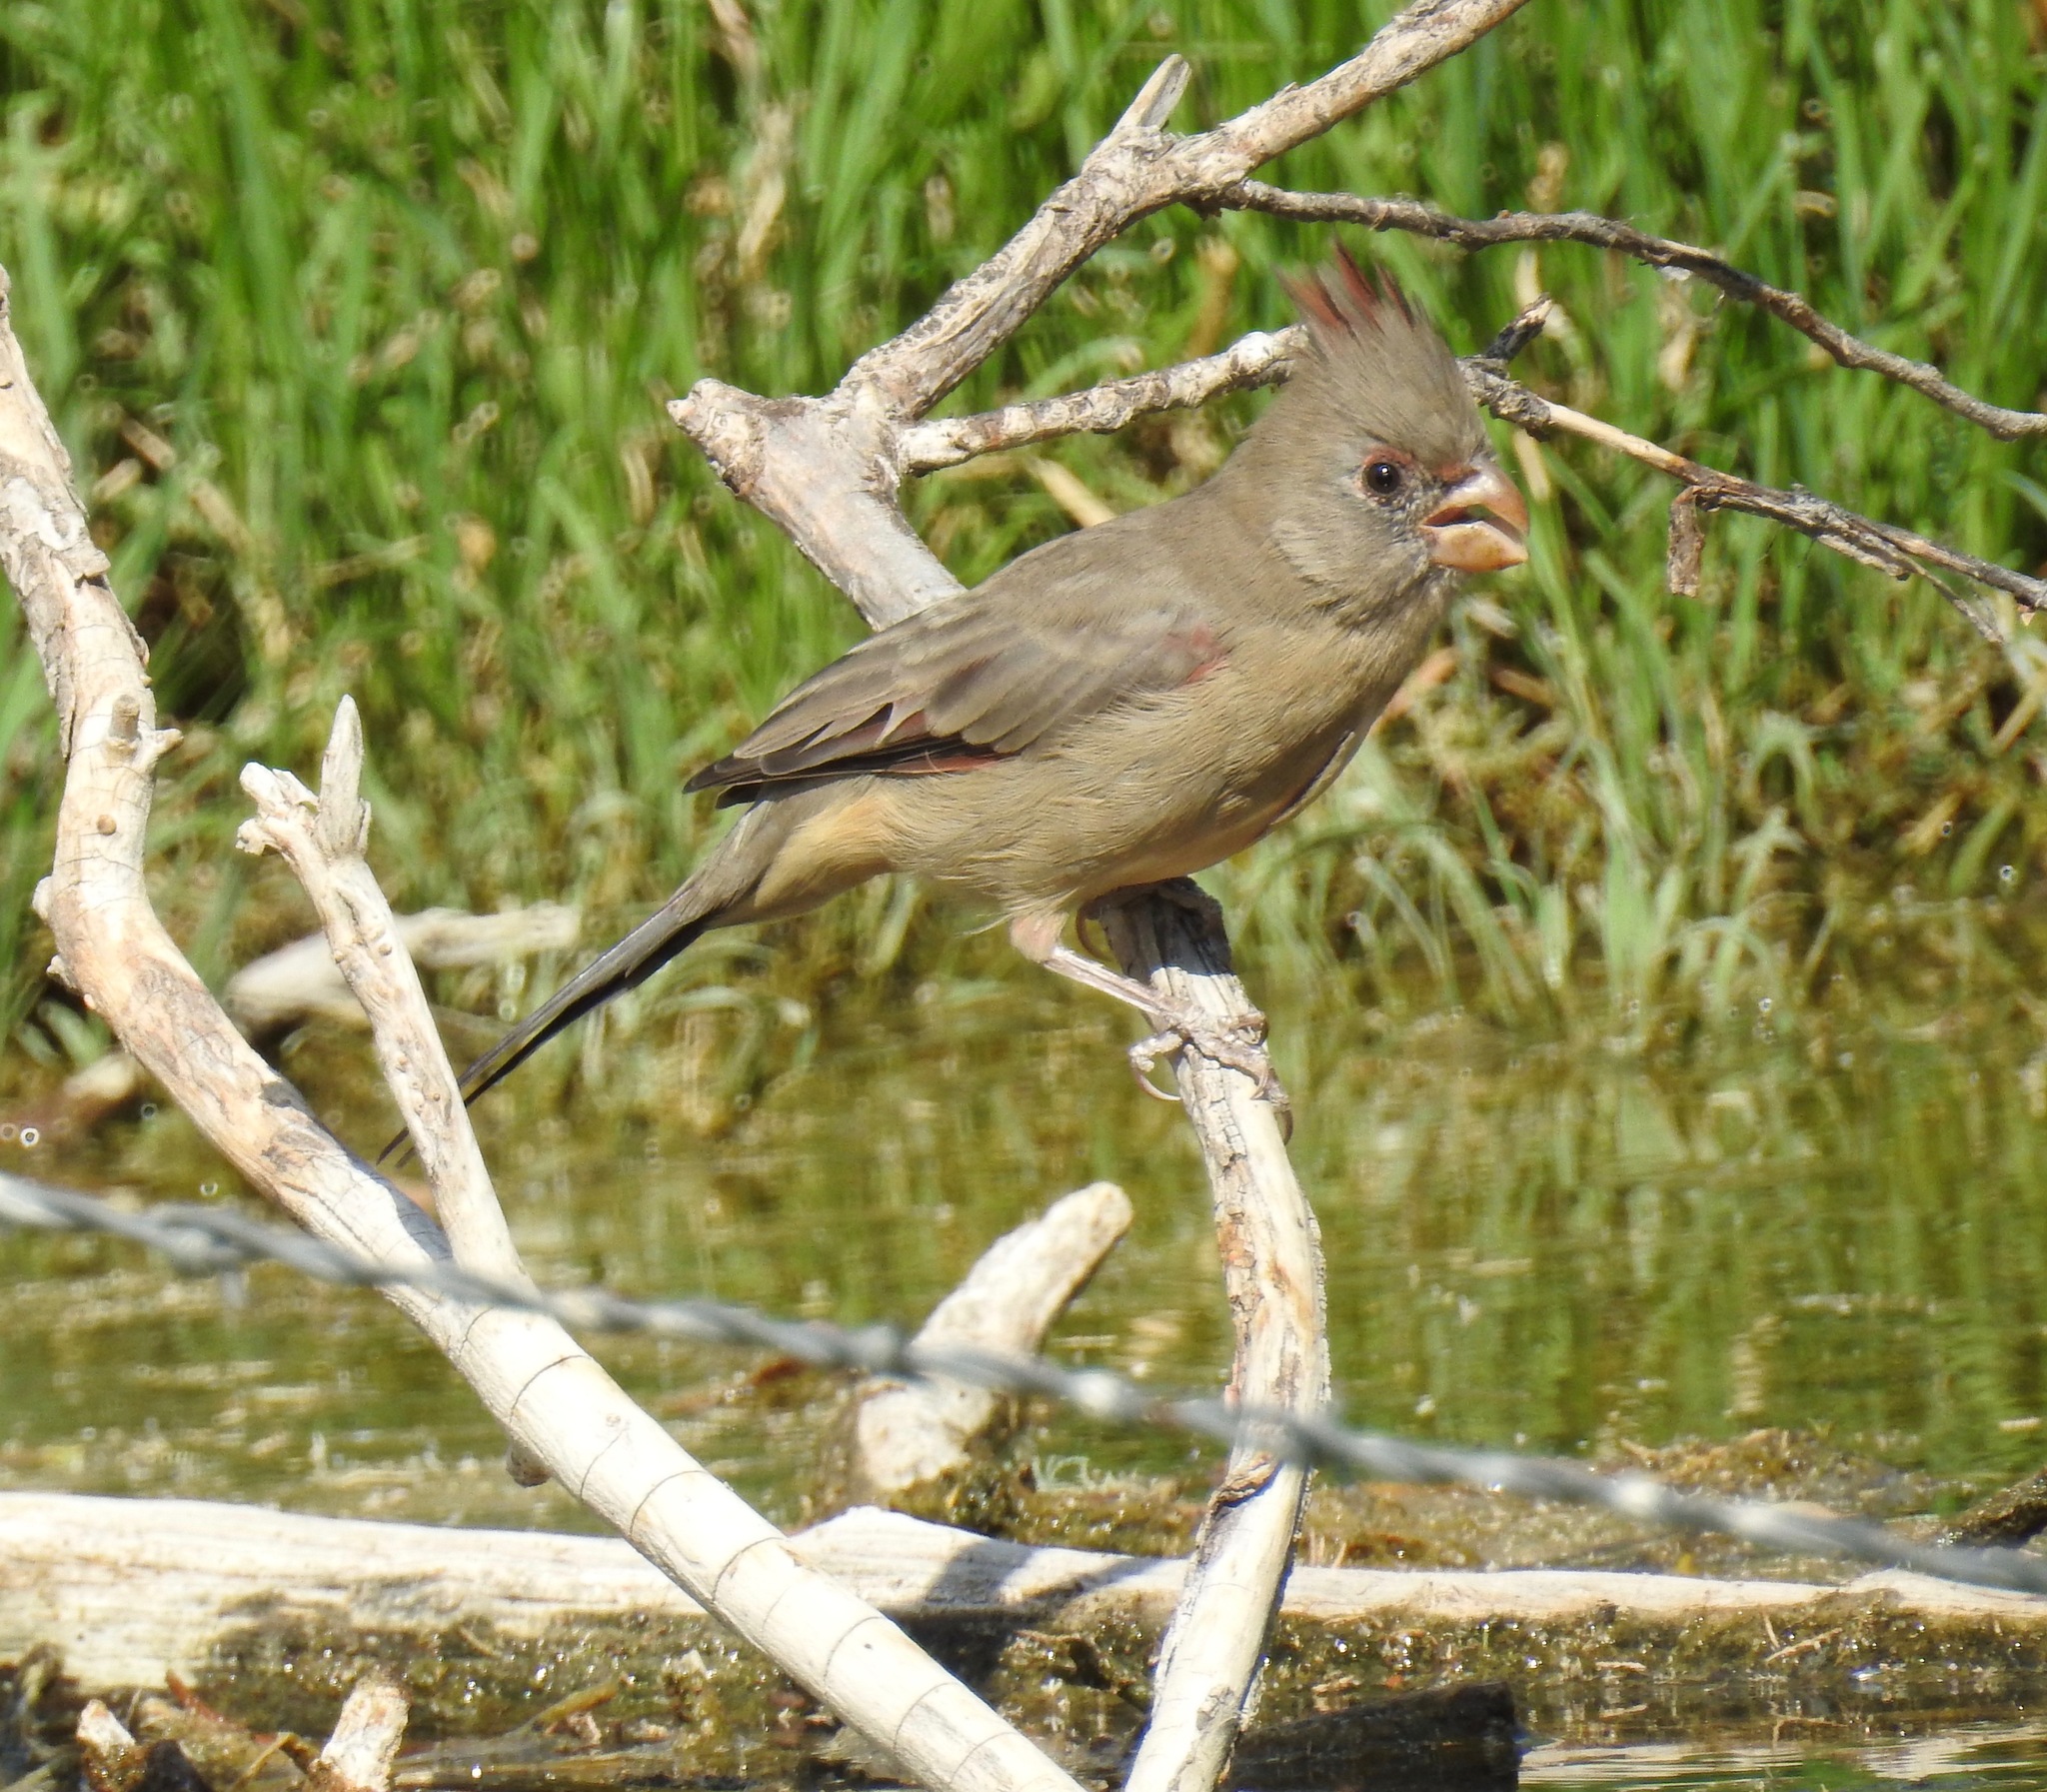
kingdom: Animalia
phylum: Chordata
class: Aves
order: Passeriformes
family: Cardinalidae
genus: Cardinalis
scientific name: Cardinalis sinuatus
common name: Pyrrhuloxia
